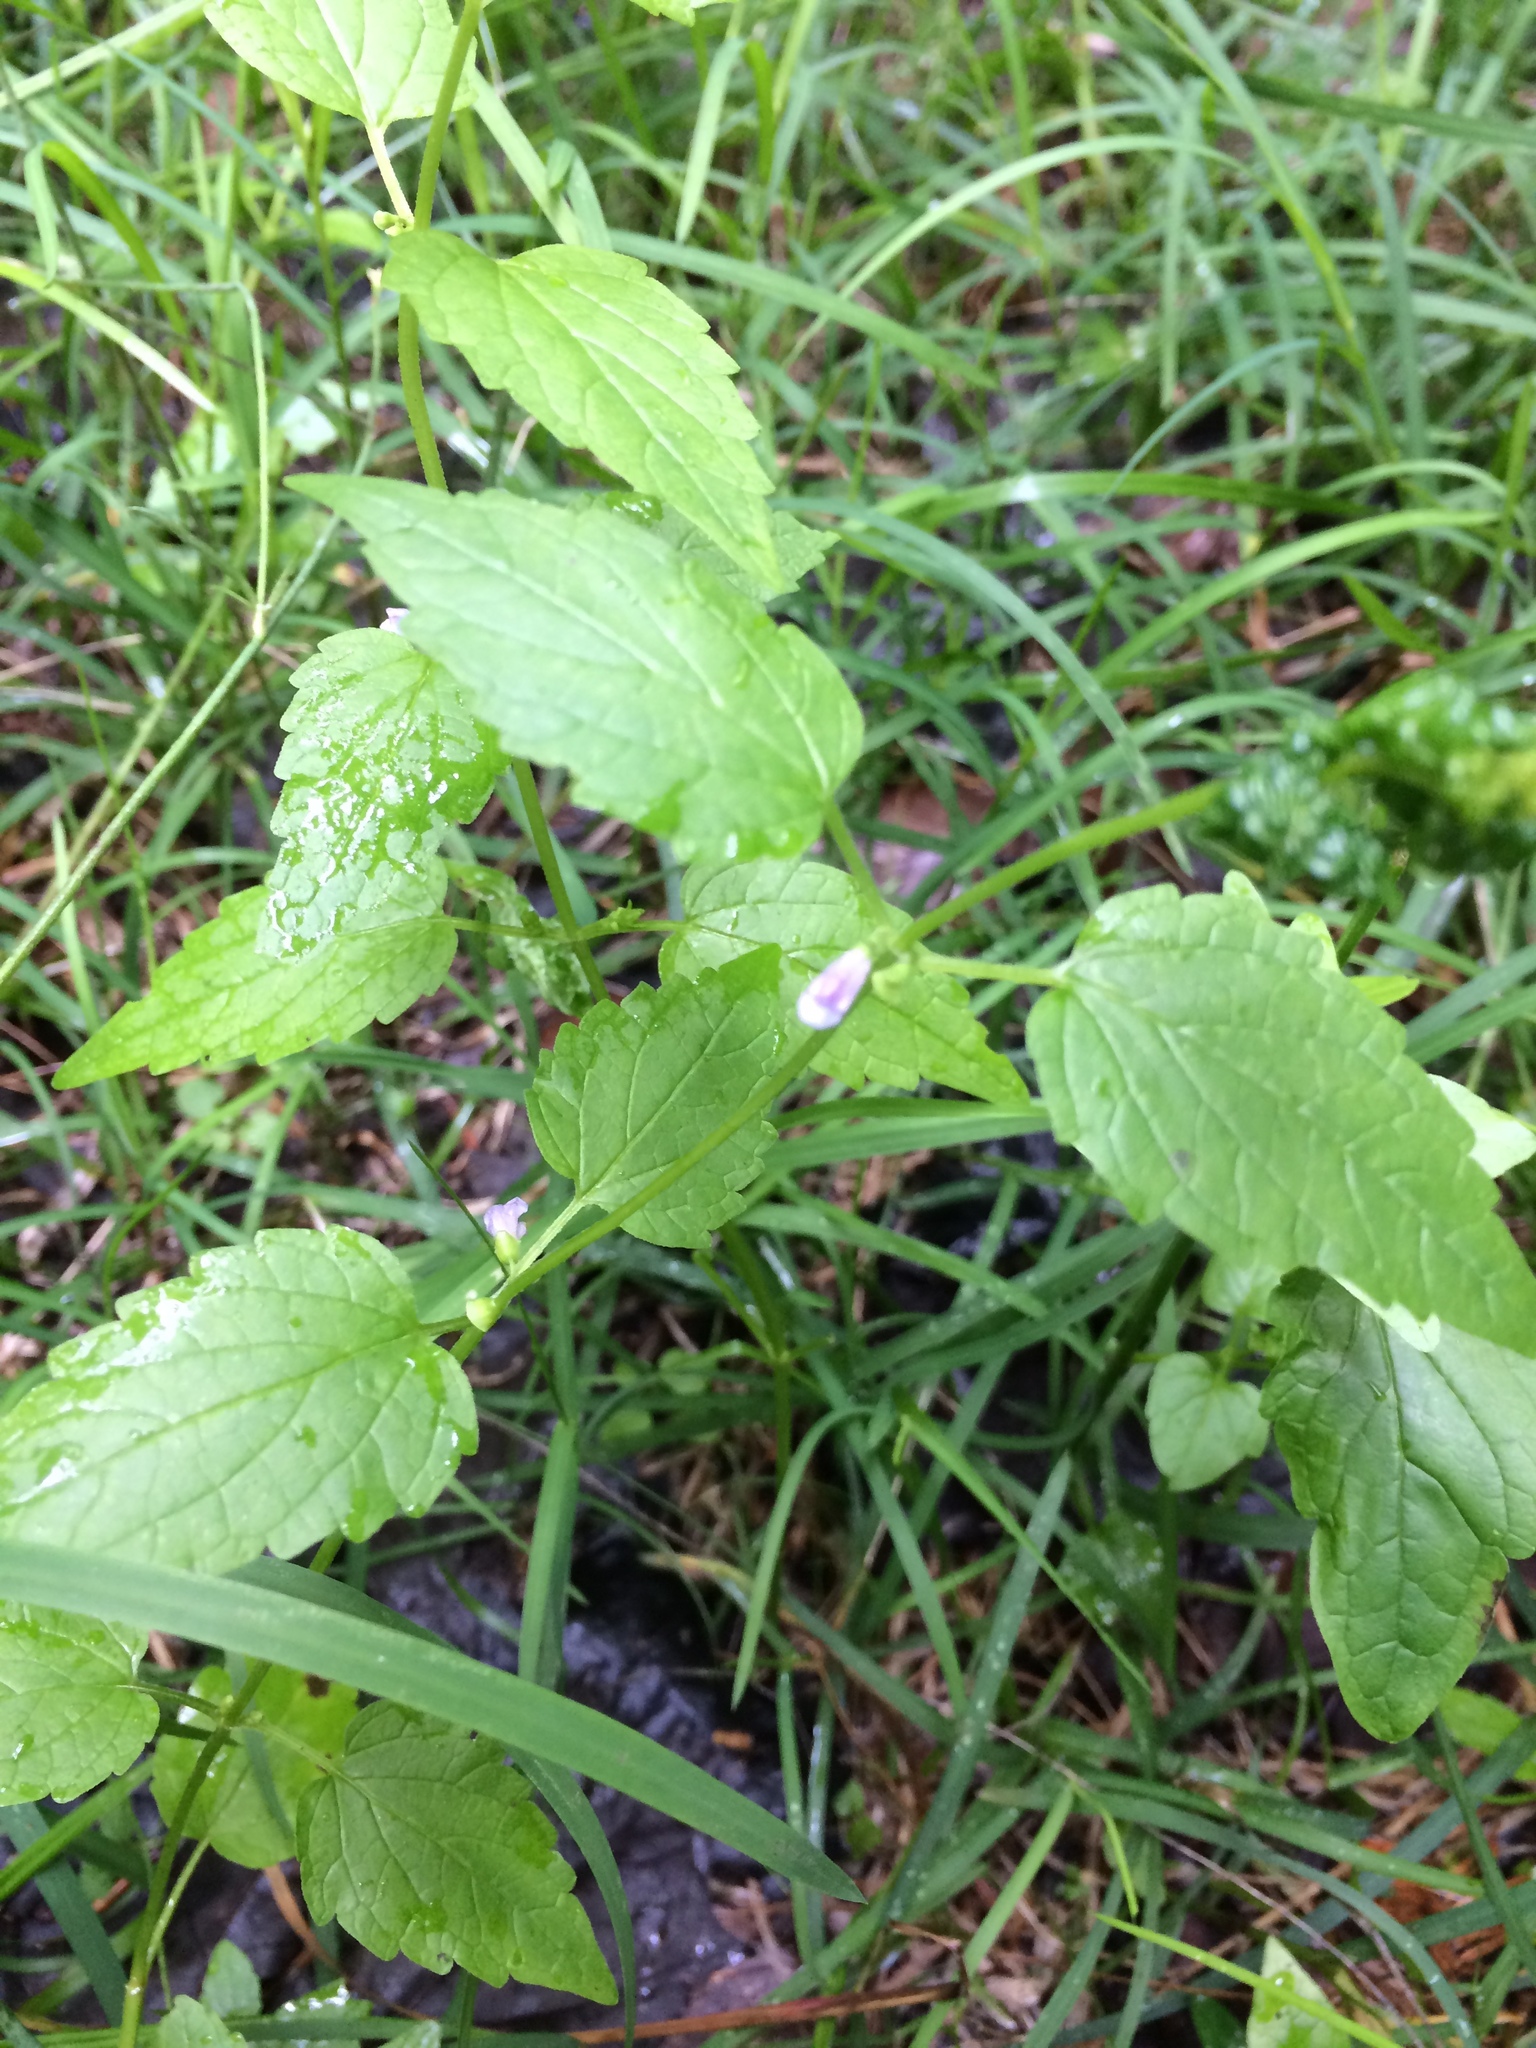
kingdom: Plantae
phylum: Tracheophyta
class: Magnoliopsida
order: Lamiales
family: Lamiaceae
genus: Scutellaria
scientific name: Scutellaria lateriflora
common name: Blue skullcap
